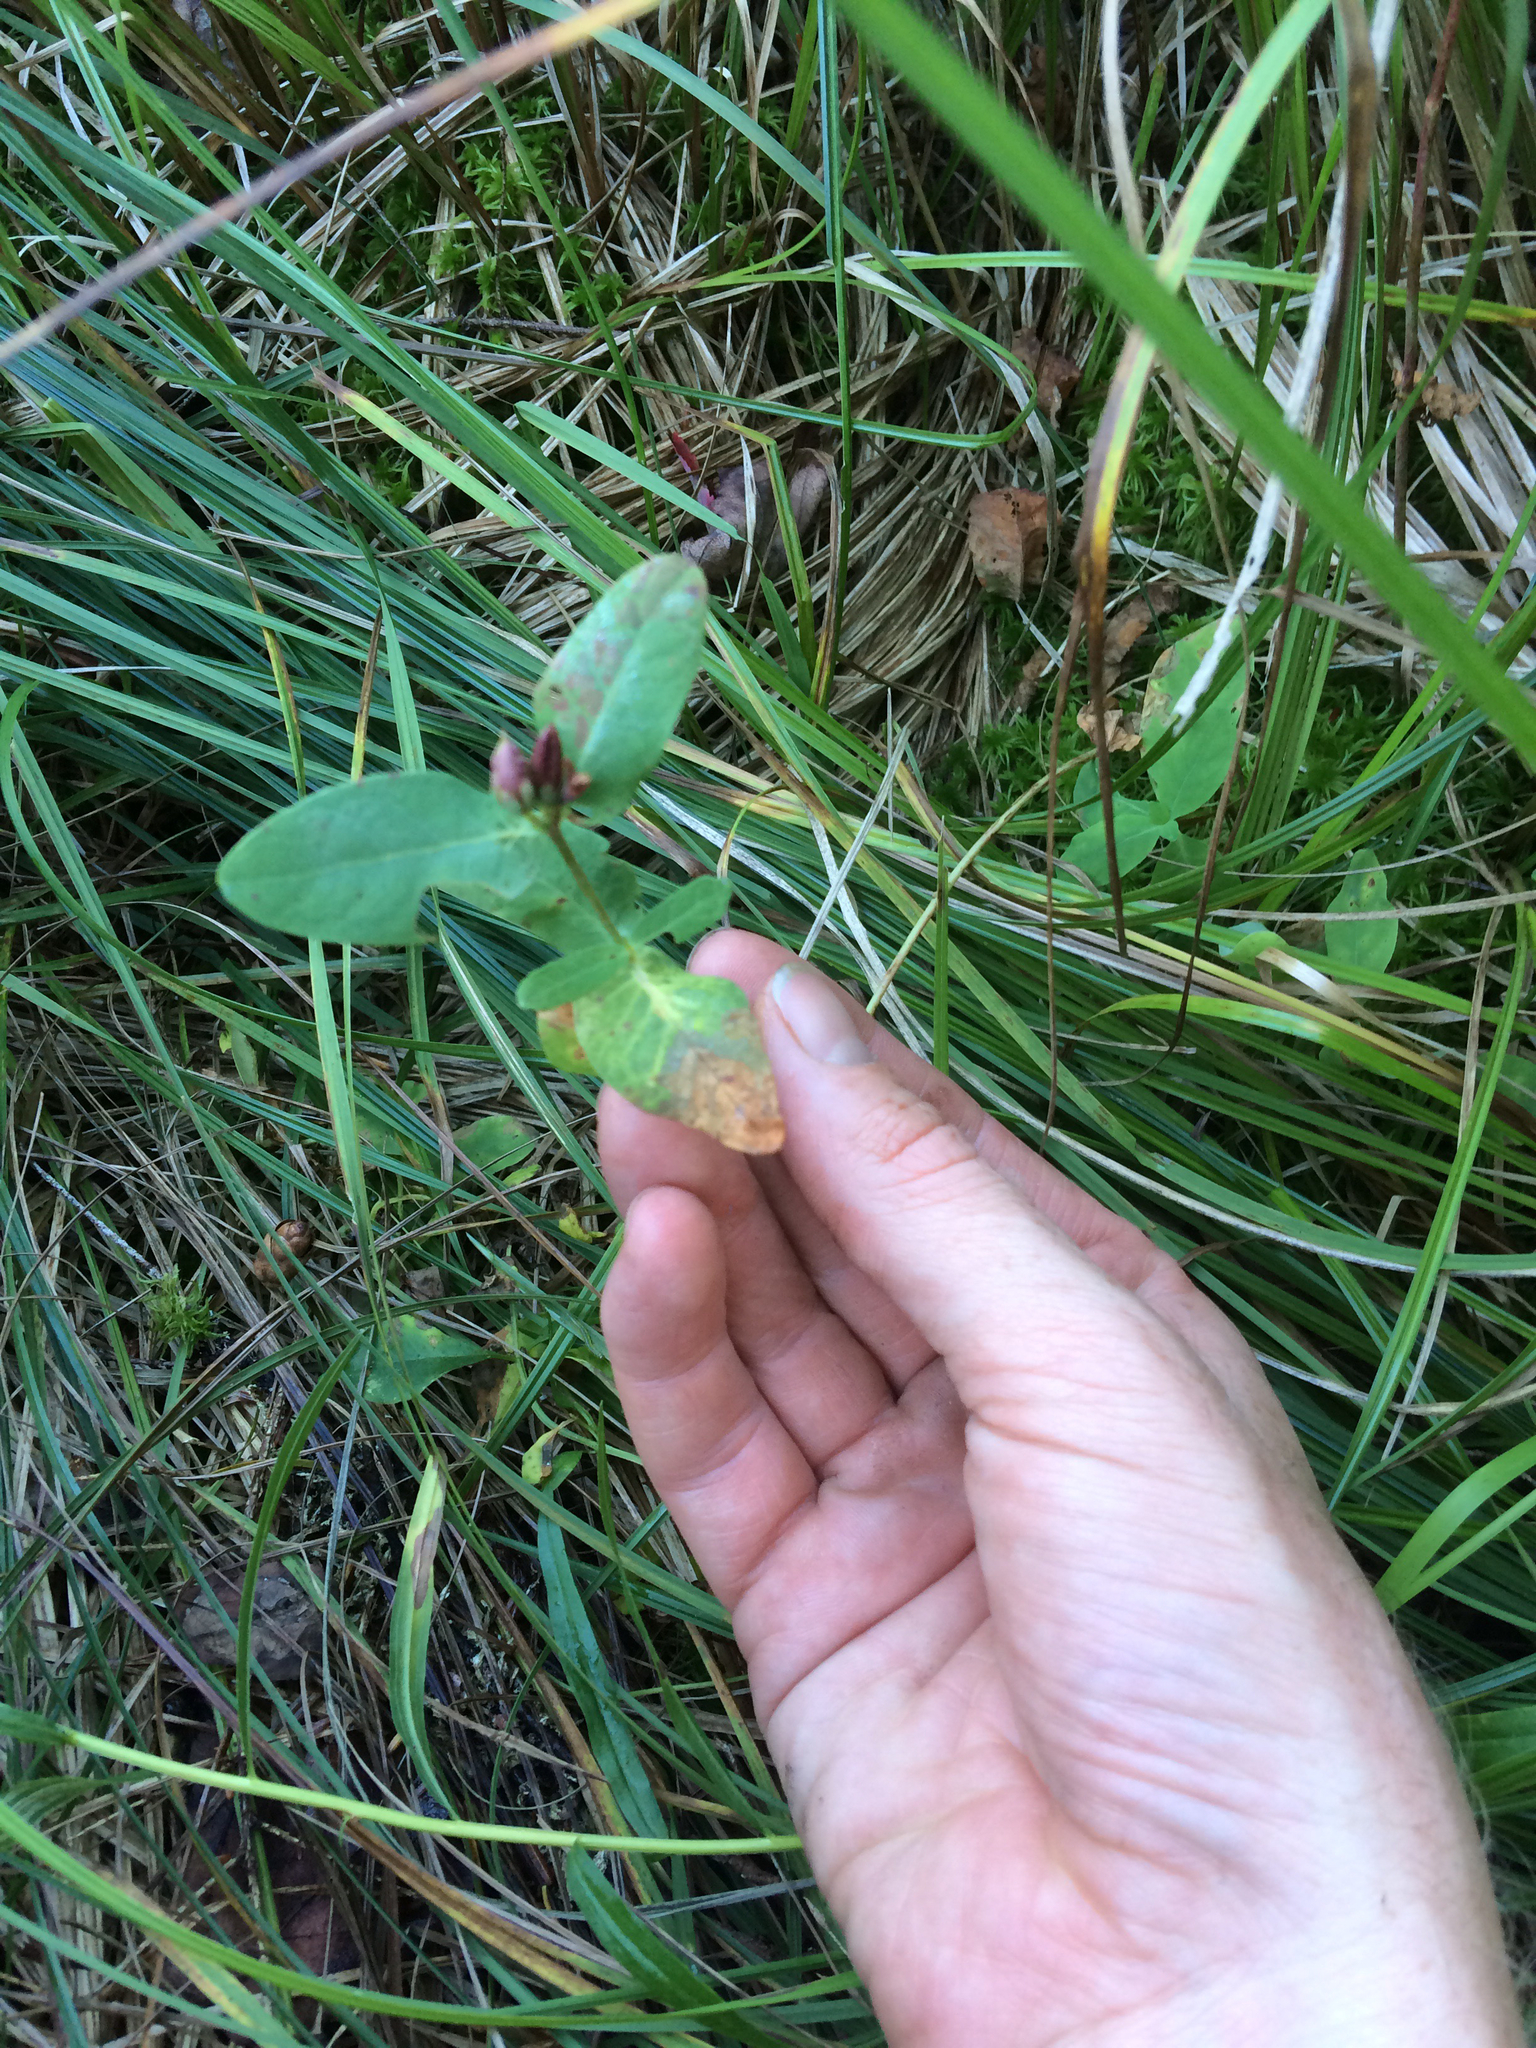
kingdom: Plantae
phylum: Tracheophyta
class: Magnoliopsida
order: Malpighiales
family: Hypericaceae
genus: Triadenum
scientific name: Triadenum virginicum
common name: Marsh st. john's-wort
